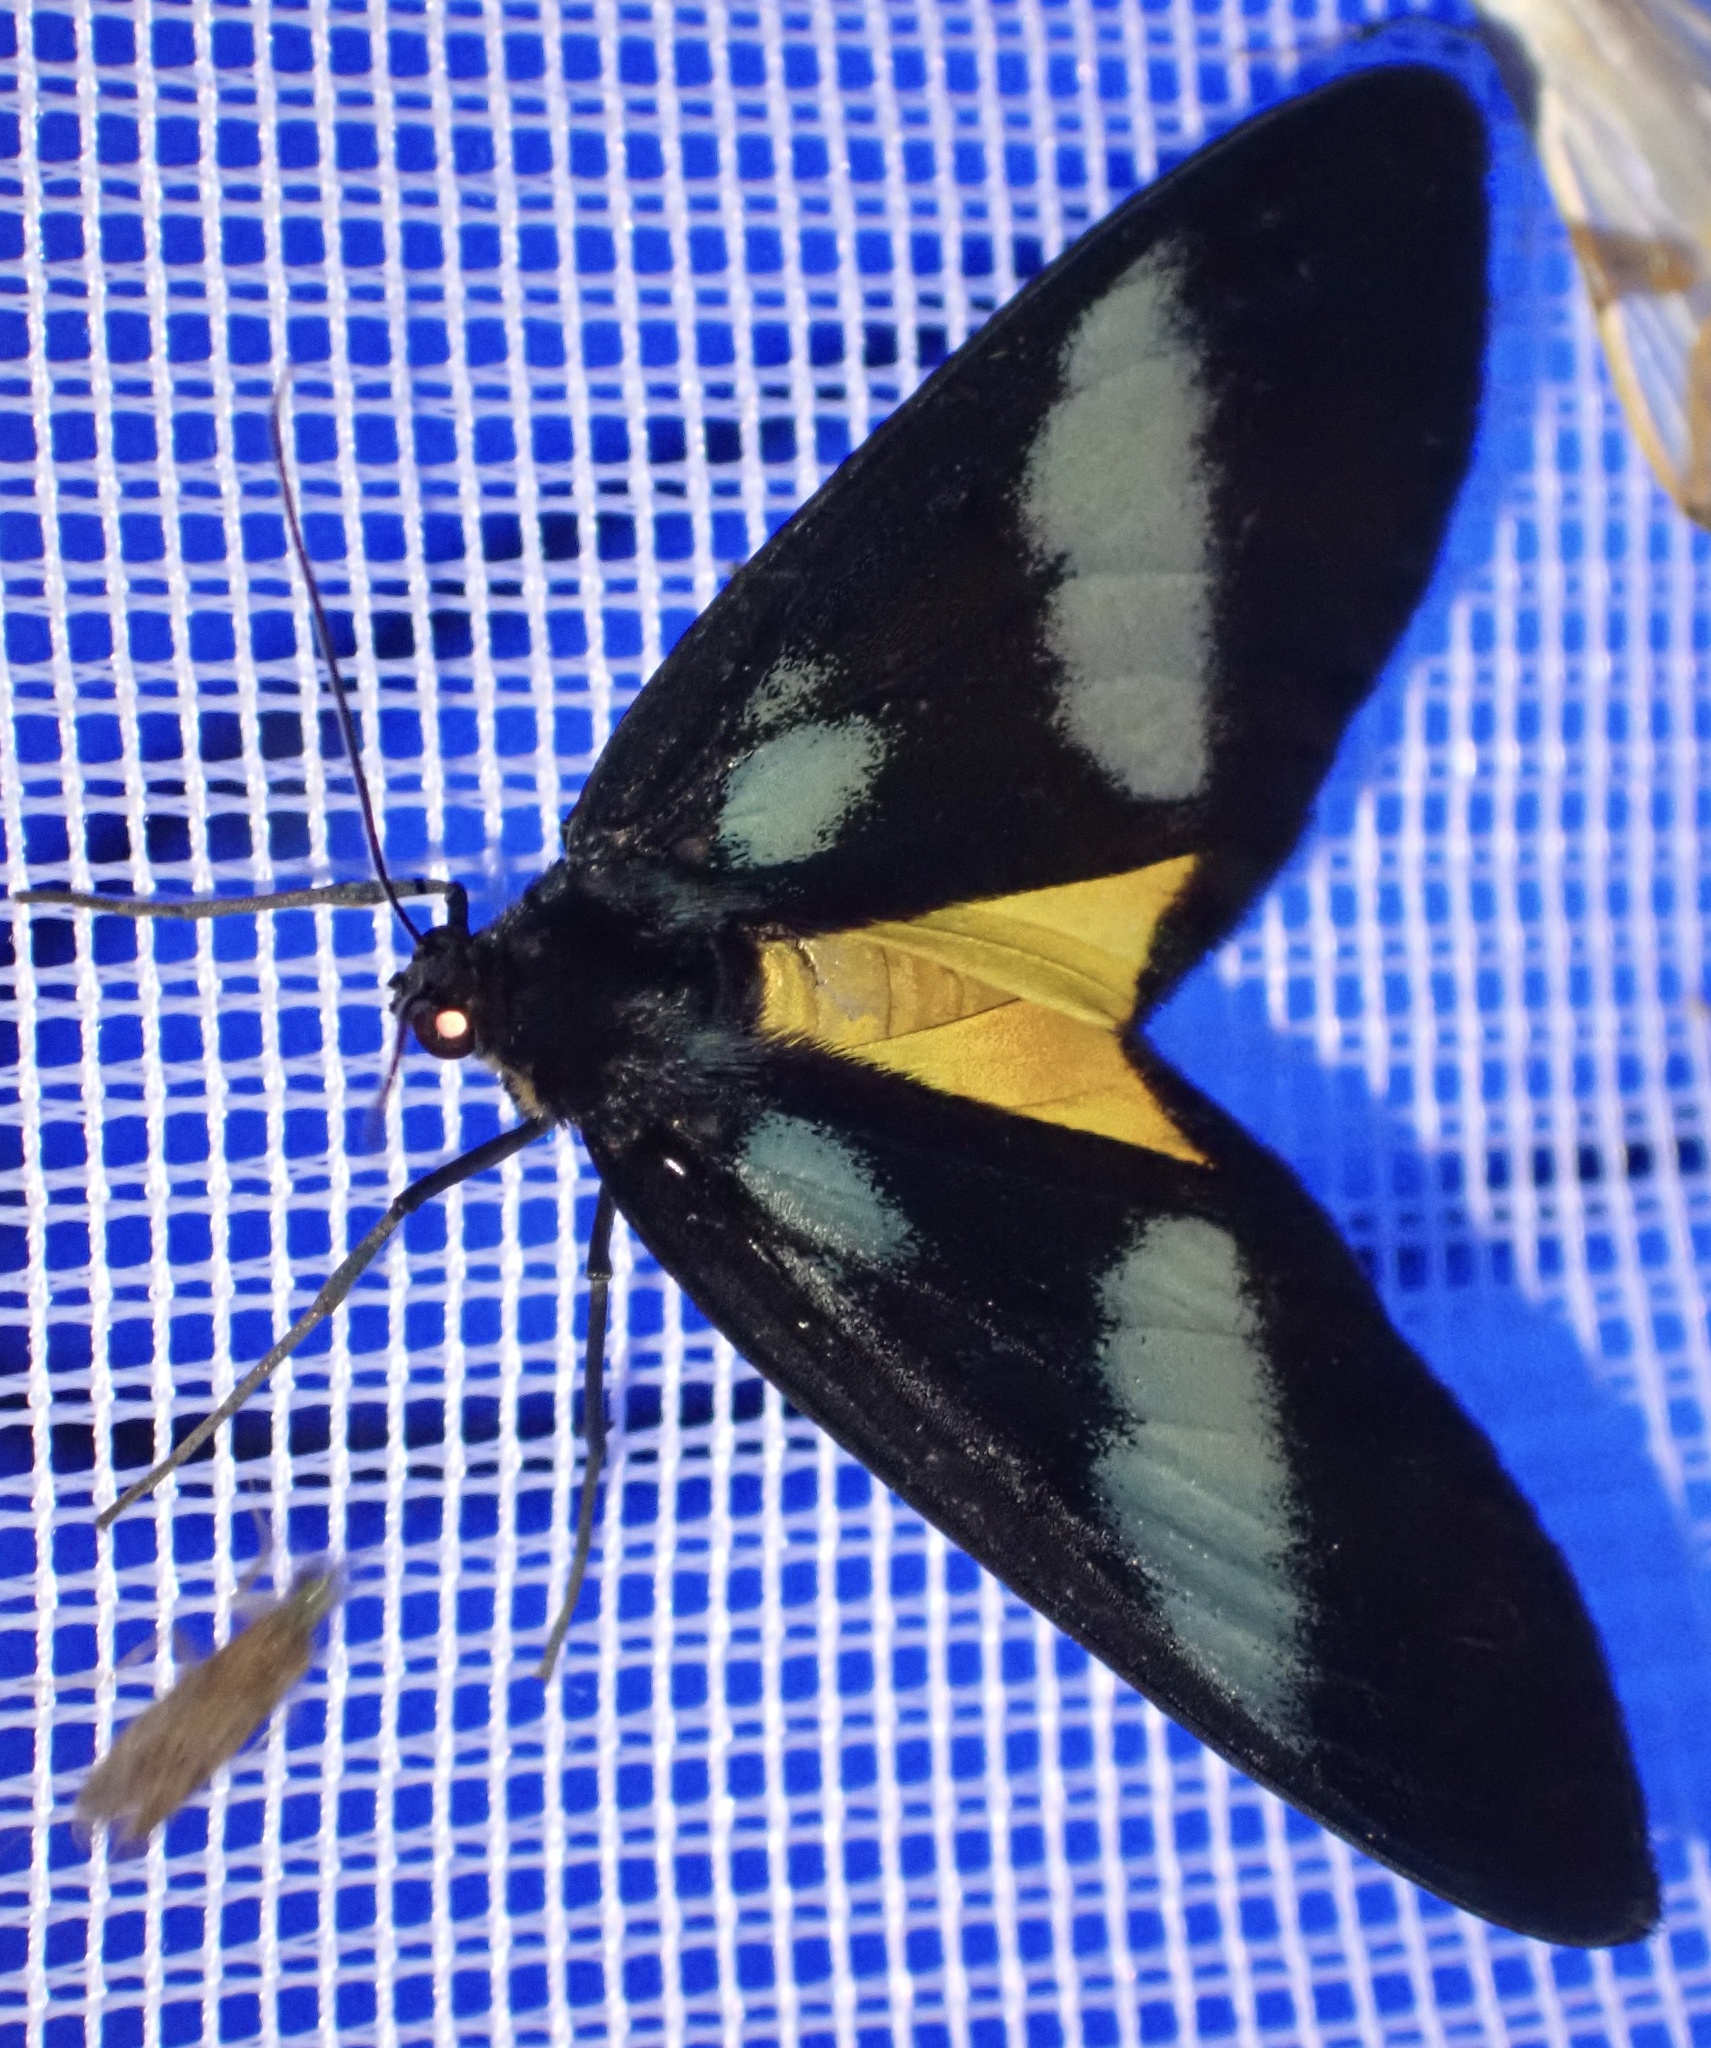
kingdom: Animalia
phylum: Arthropoda
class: Insecta
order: Lepidoptera
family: Geometridae
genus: Lobocraspeda
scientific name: Lobocraspeda latefascia
